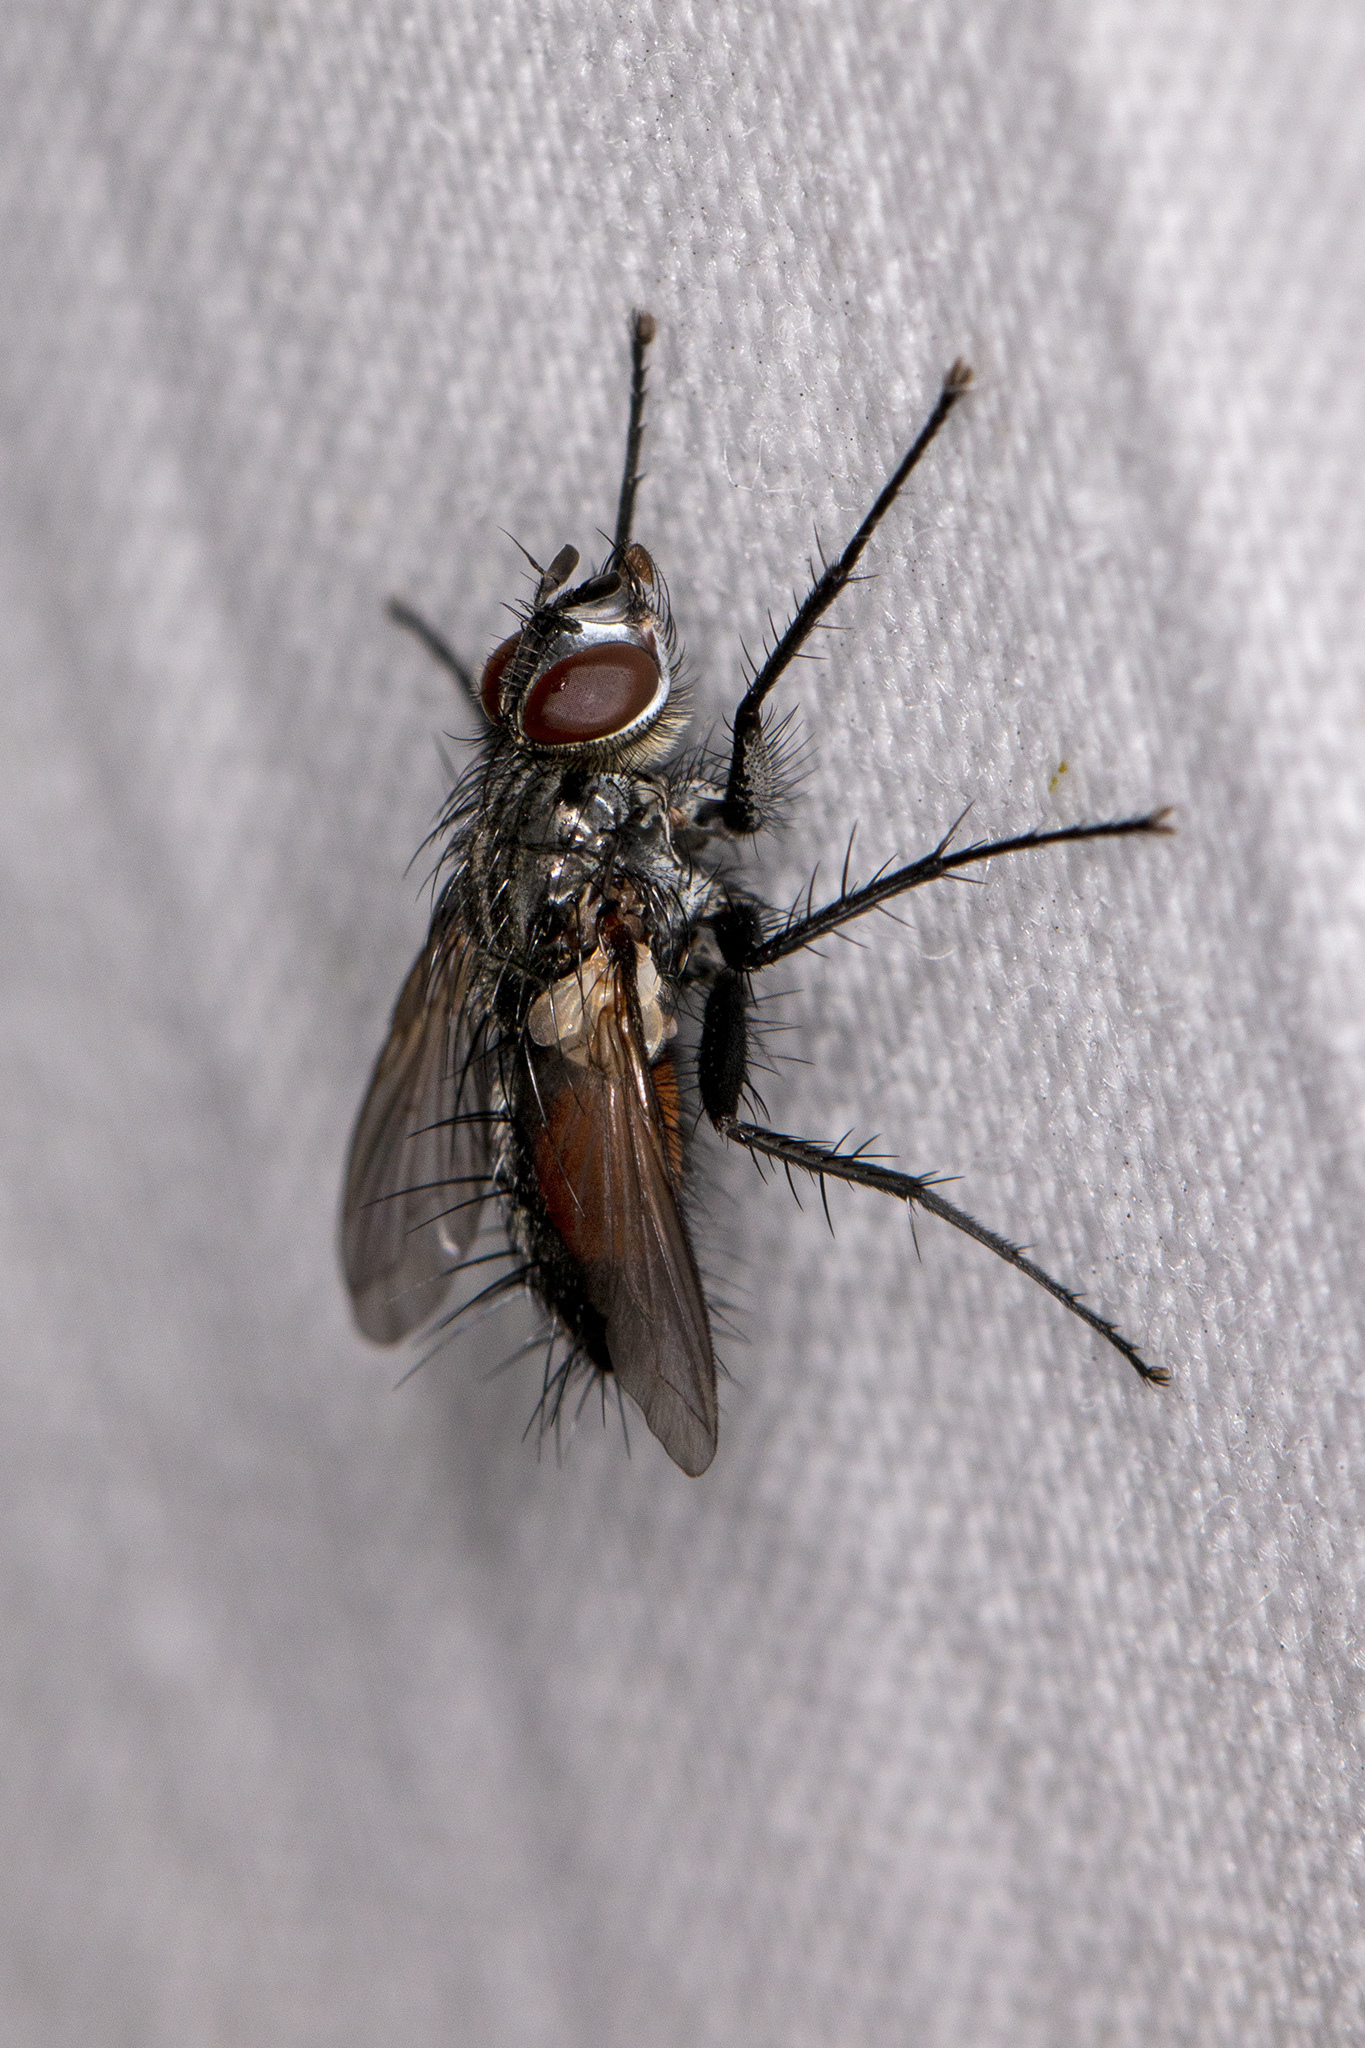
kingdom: Animalia
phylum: Arthropoda
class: Insecta
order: Diptera
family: Tachinidae
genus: Eriothrix
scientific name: Eriothrix rufomaculatus
